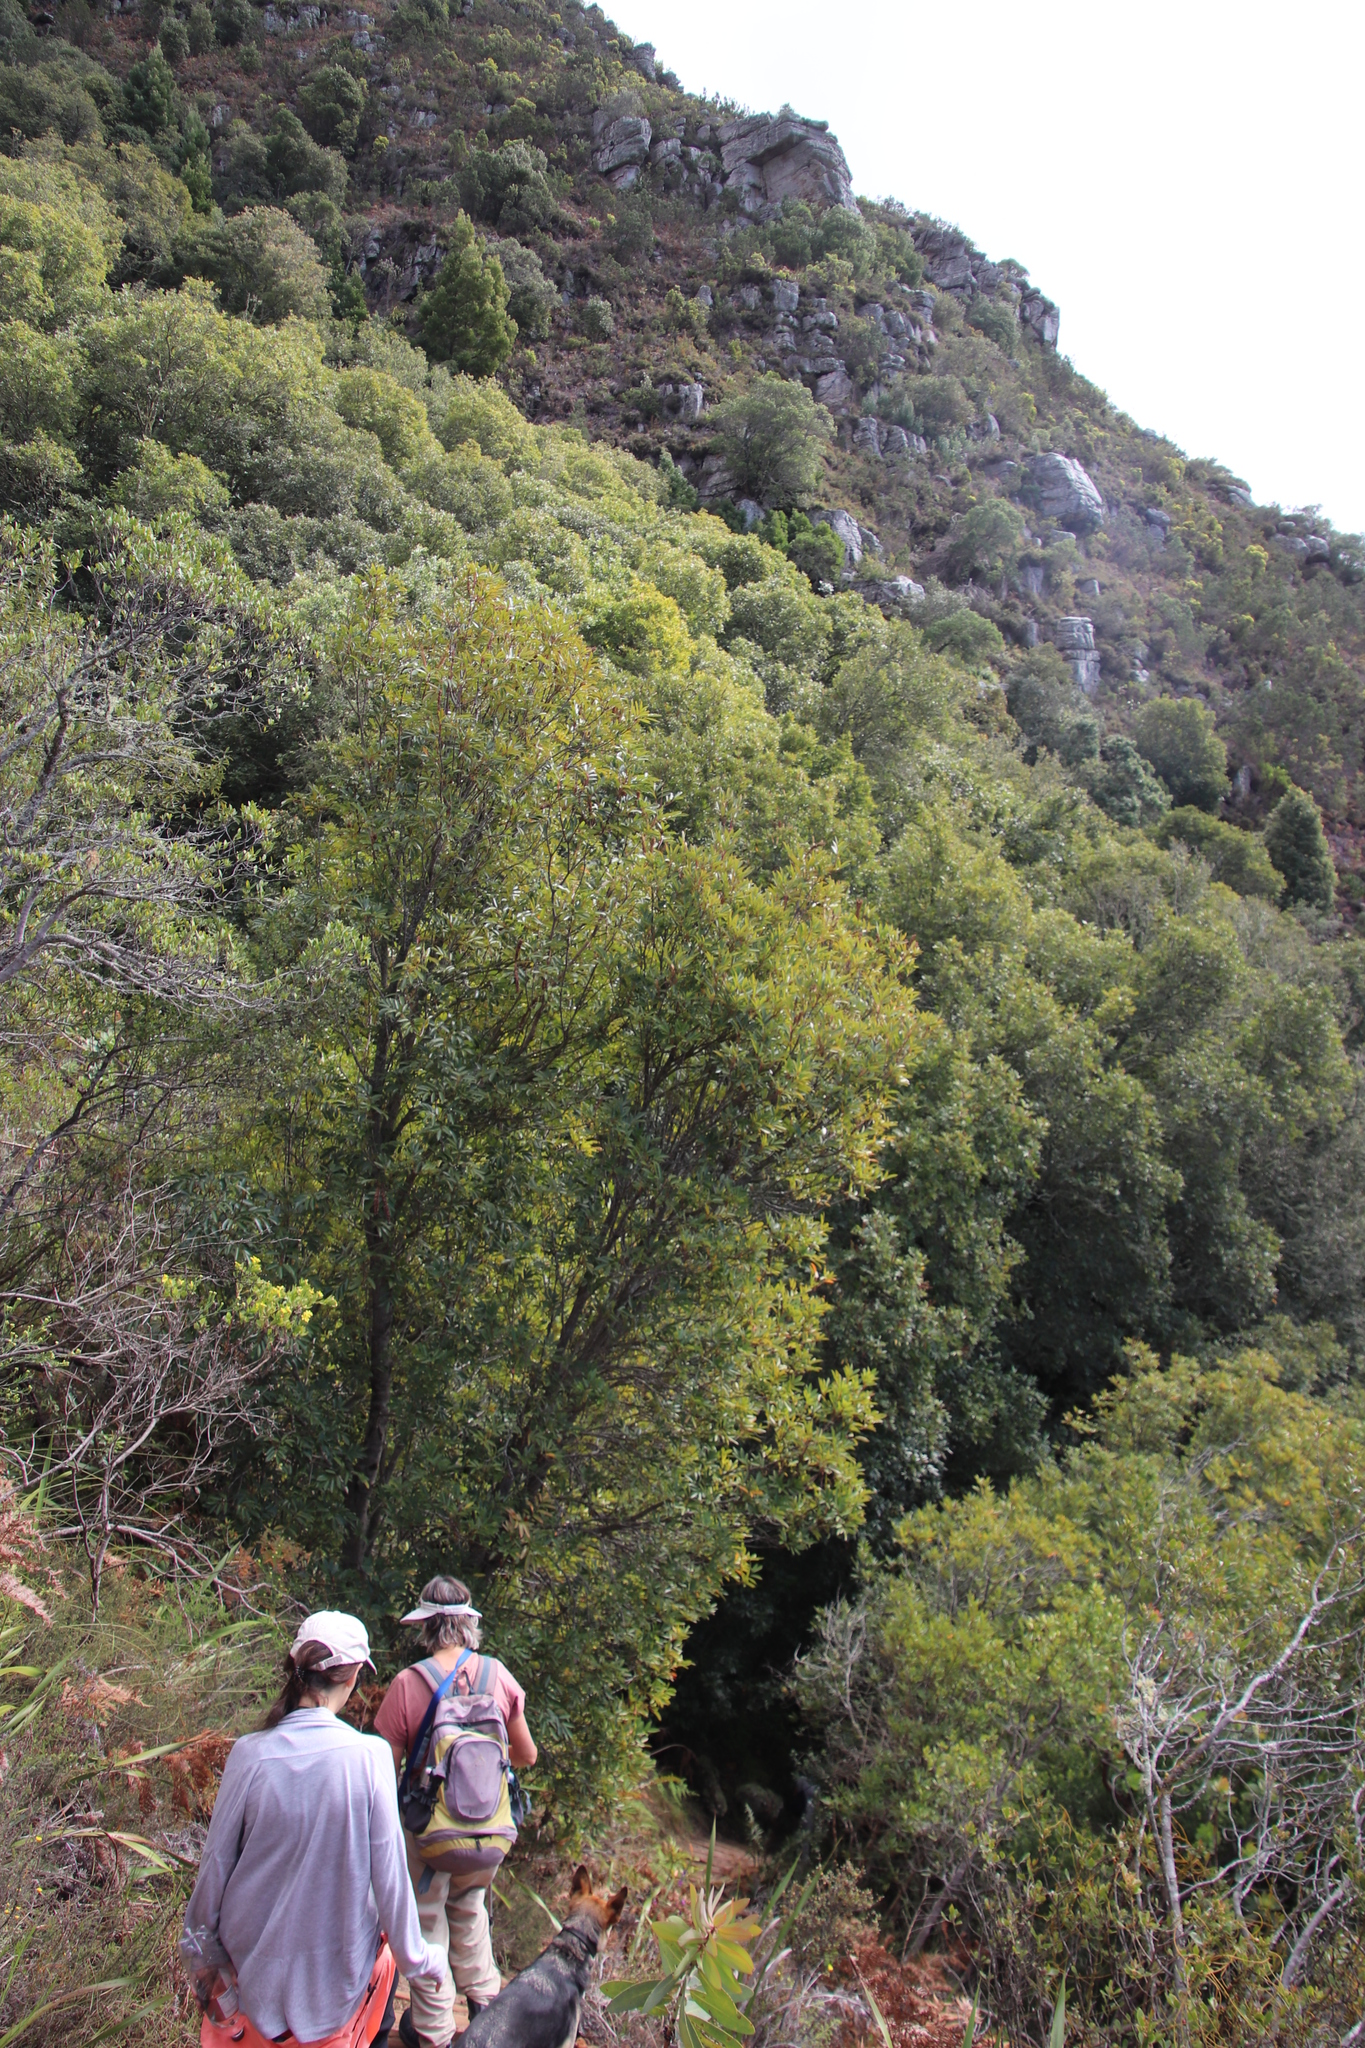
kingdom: Plantae
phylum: Tracheophyta
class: Magnoliopsida
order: Oxalidales
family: Cunoniaceae
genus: Cunonia
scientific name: Cunonia capensis
